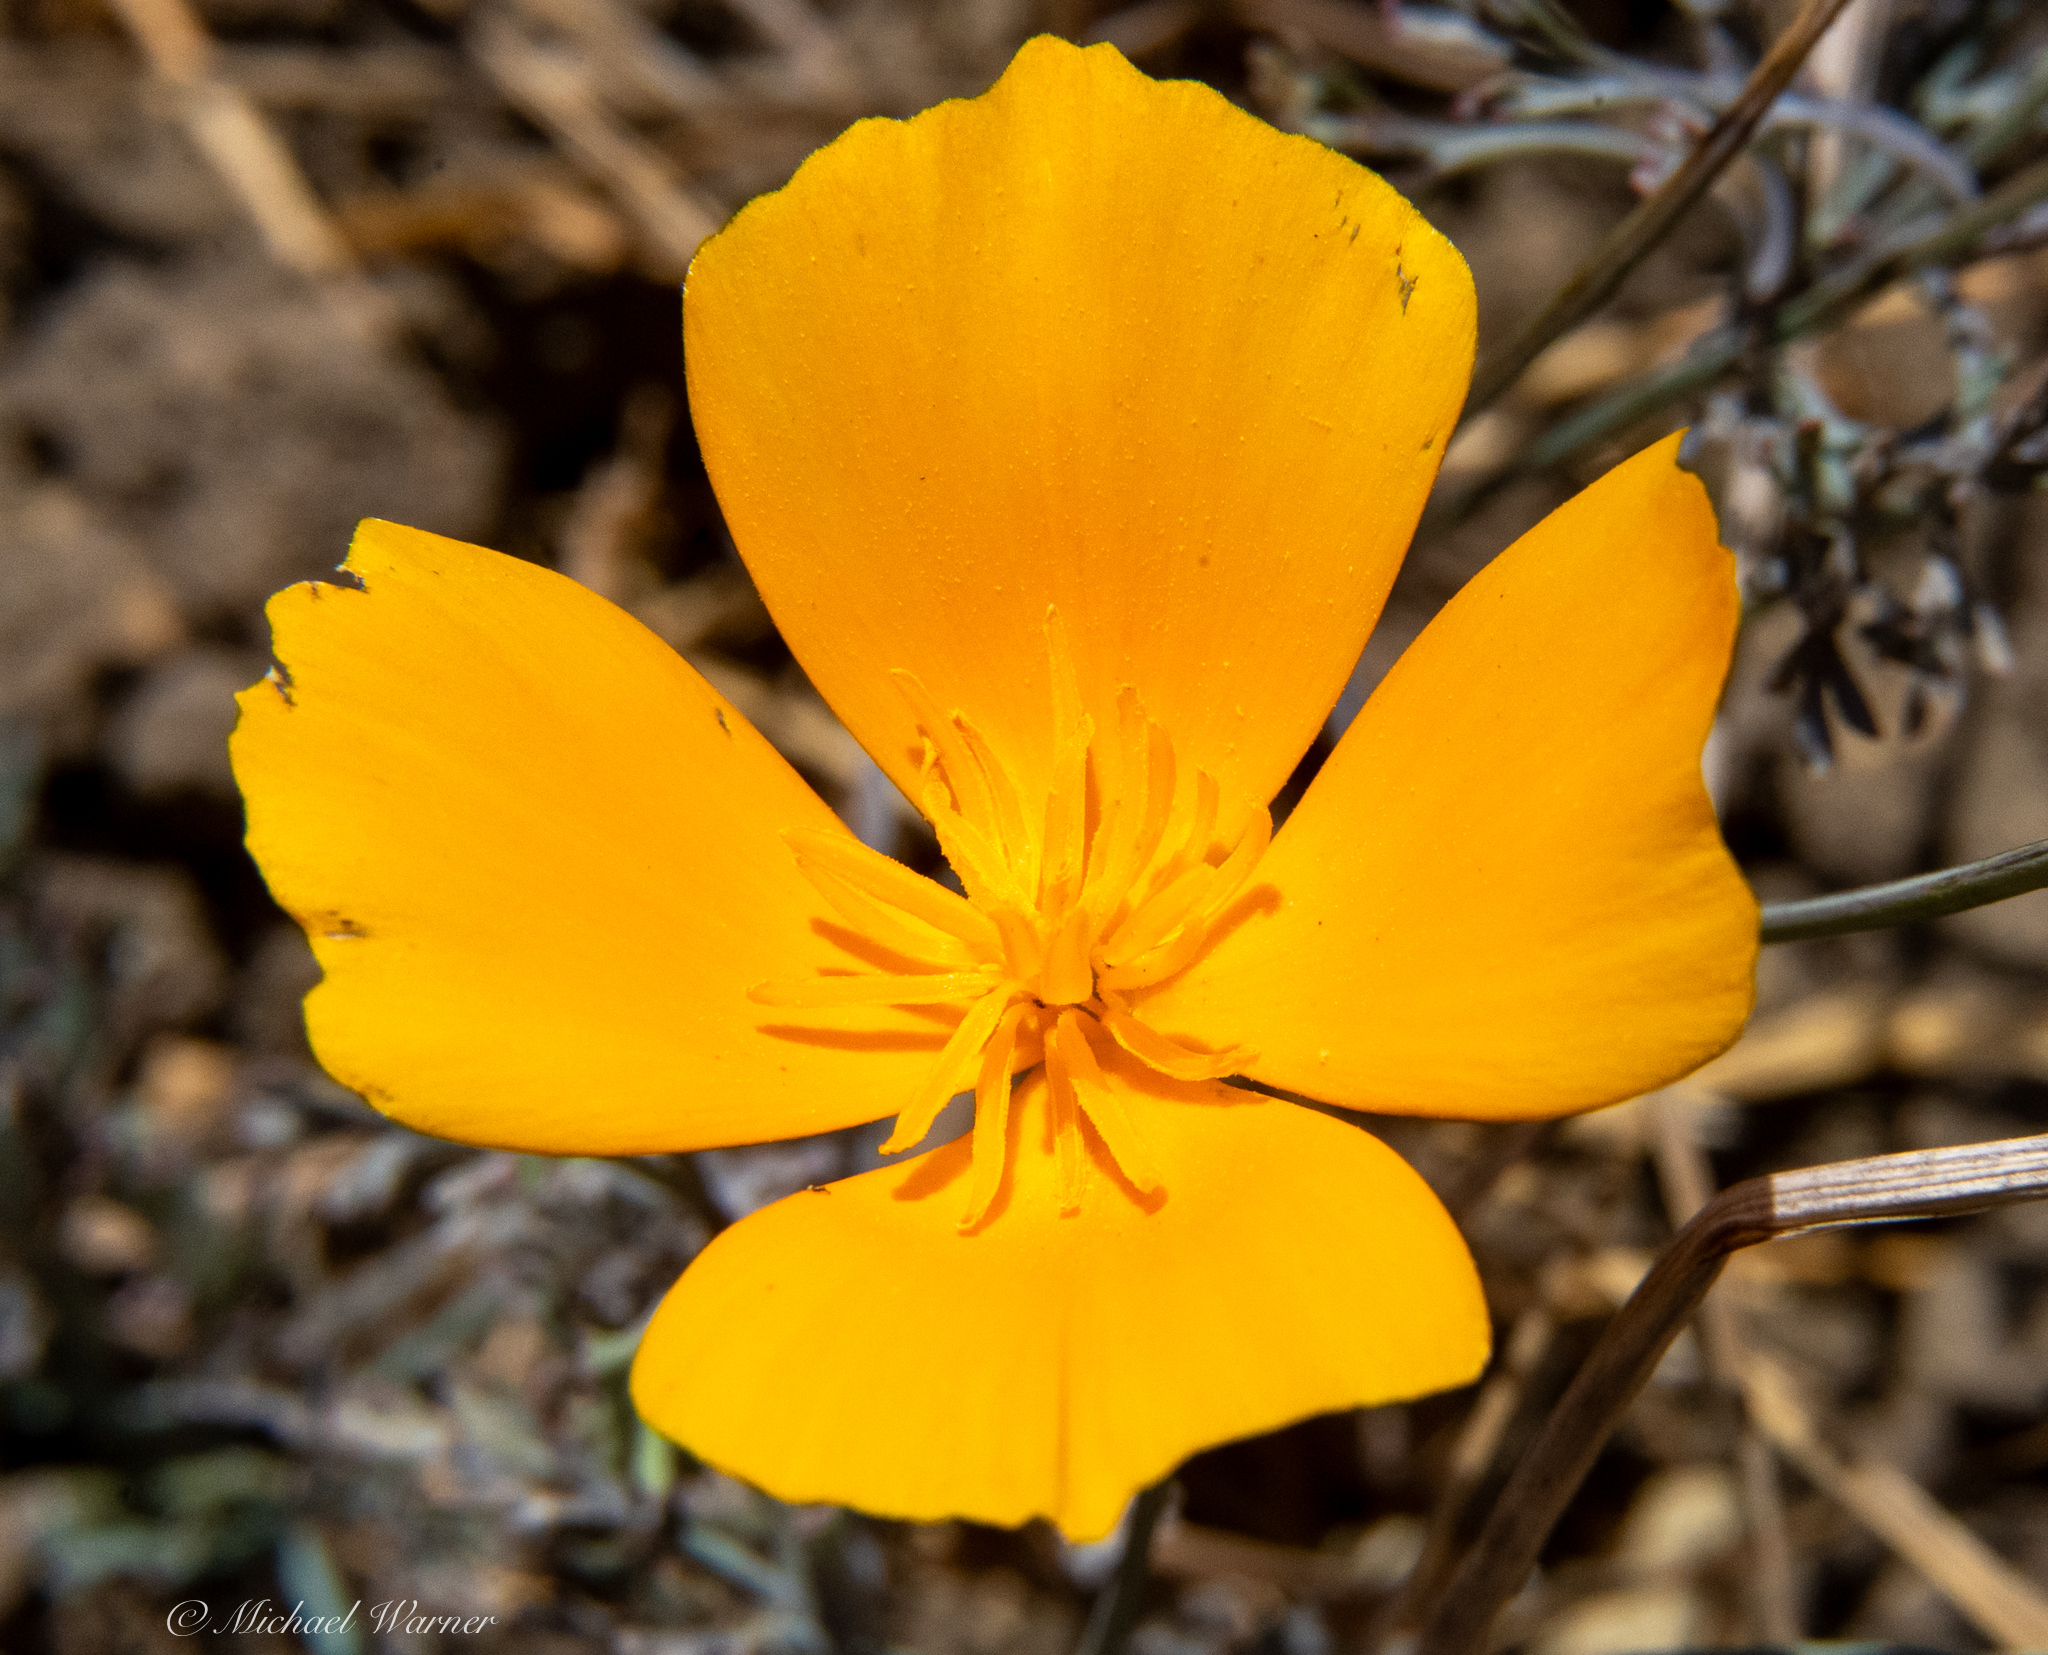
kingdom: Plantae
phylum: Tracheophyta
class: Magnoliopsida
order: Ranunculales
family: Papaveraceae
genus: Eschscholzia
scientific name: Eschscholzia californica
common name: California poppy
